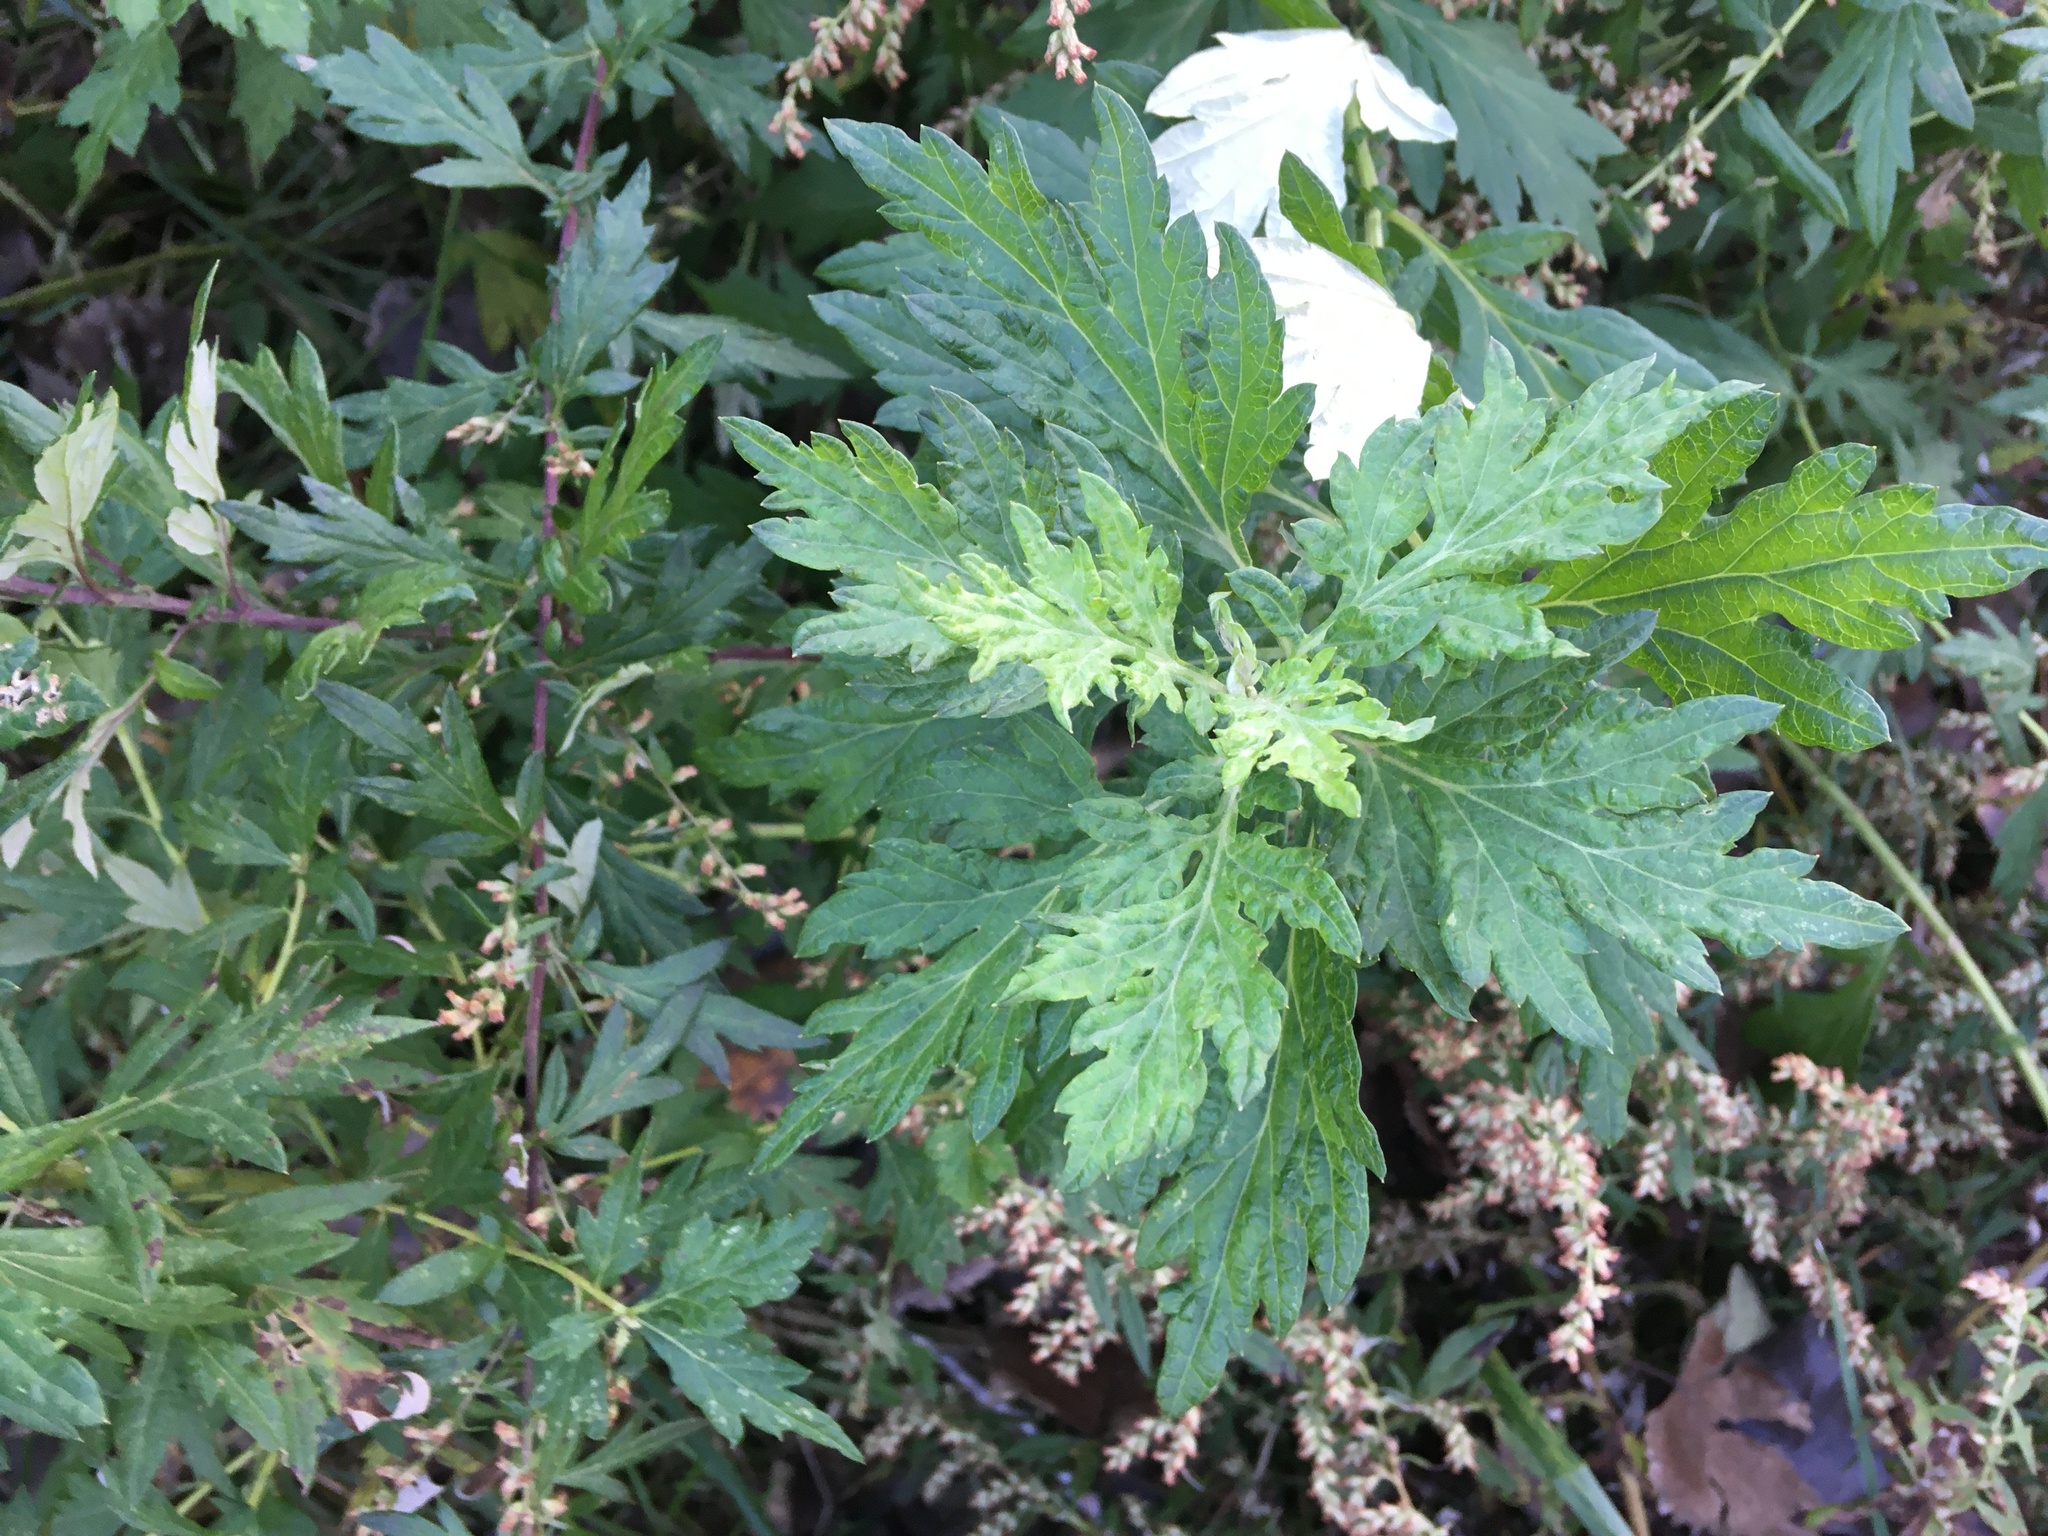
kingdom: Plantae
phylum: Tracheophyta
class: Magnoliopsida
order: Asterales
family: Asteraceae
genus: Artemisia
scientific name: Artemisia vulgaris
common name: Mugwort
